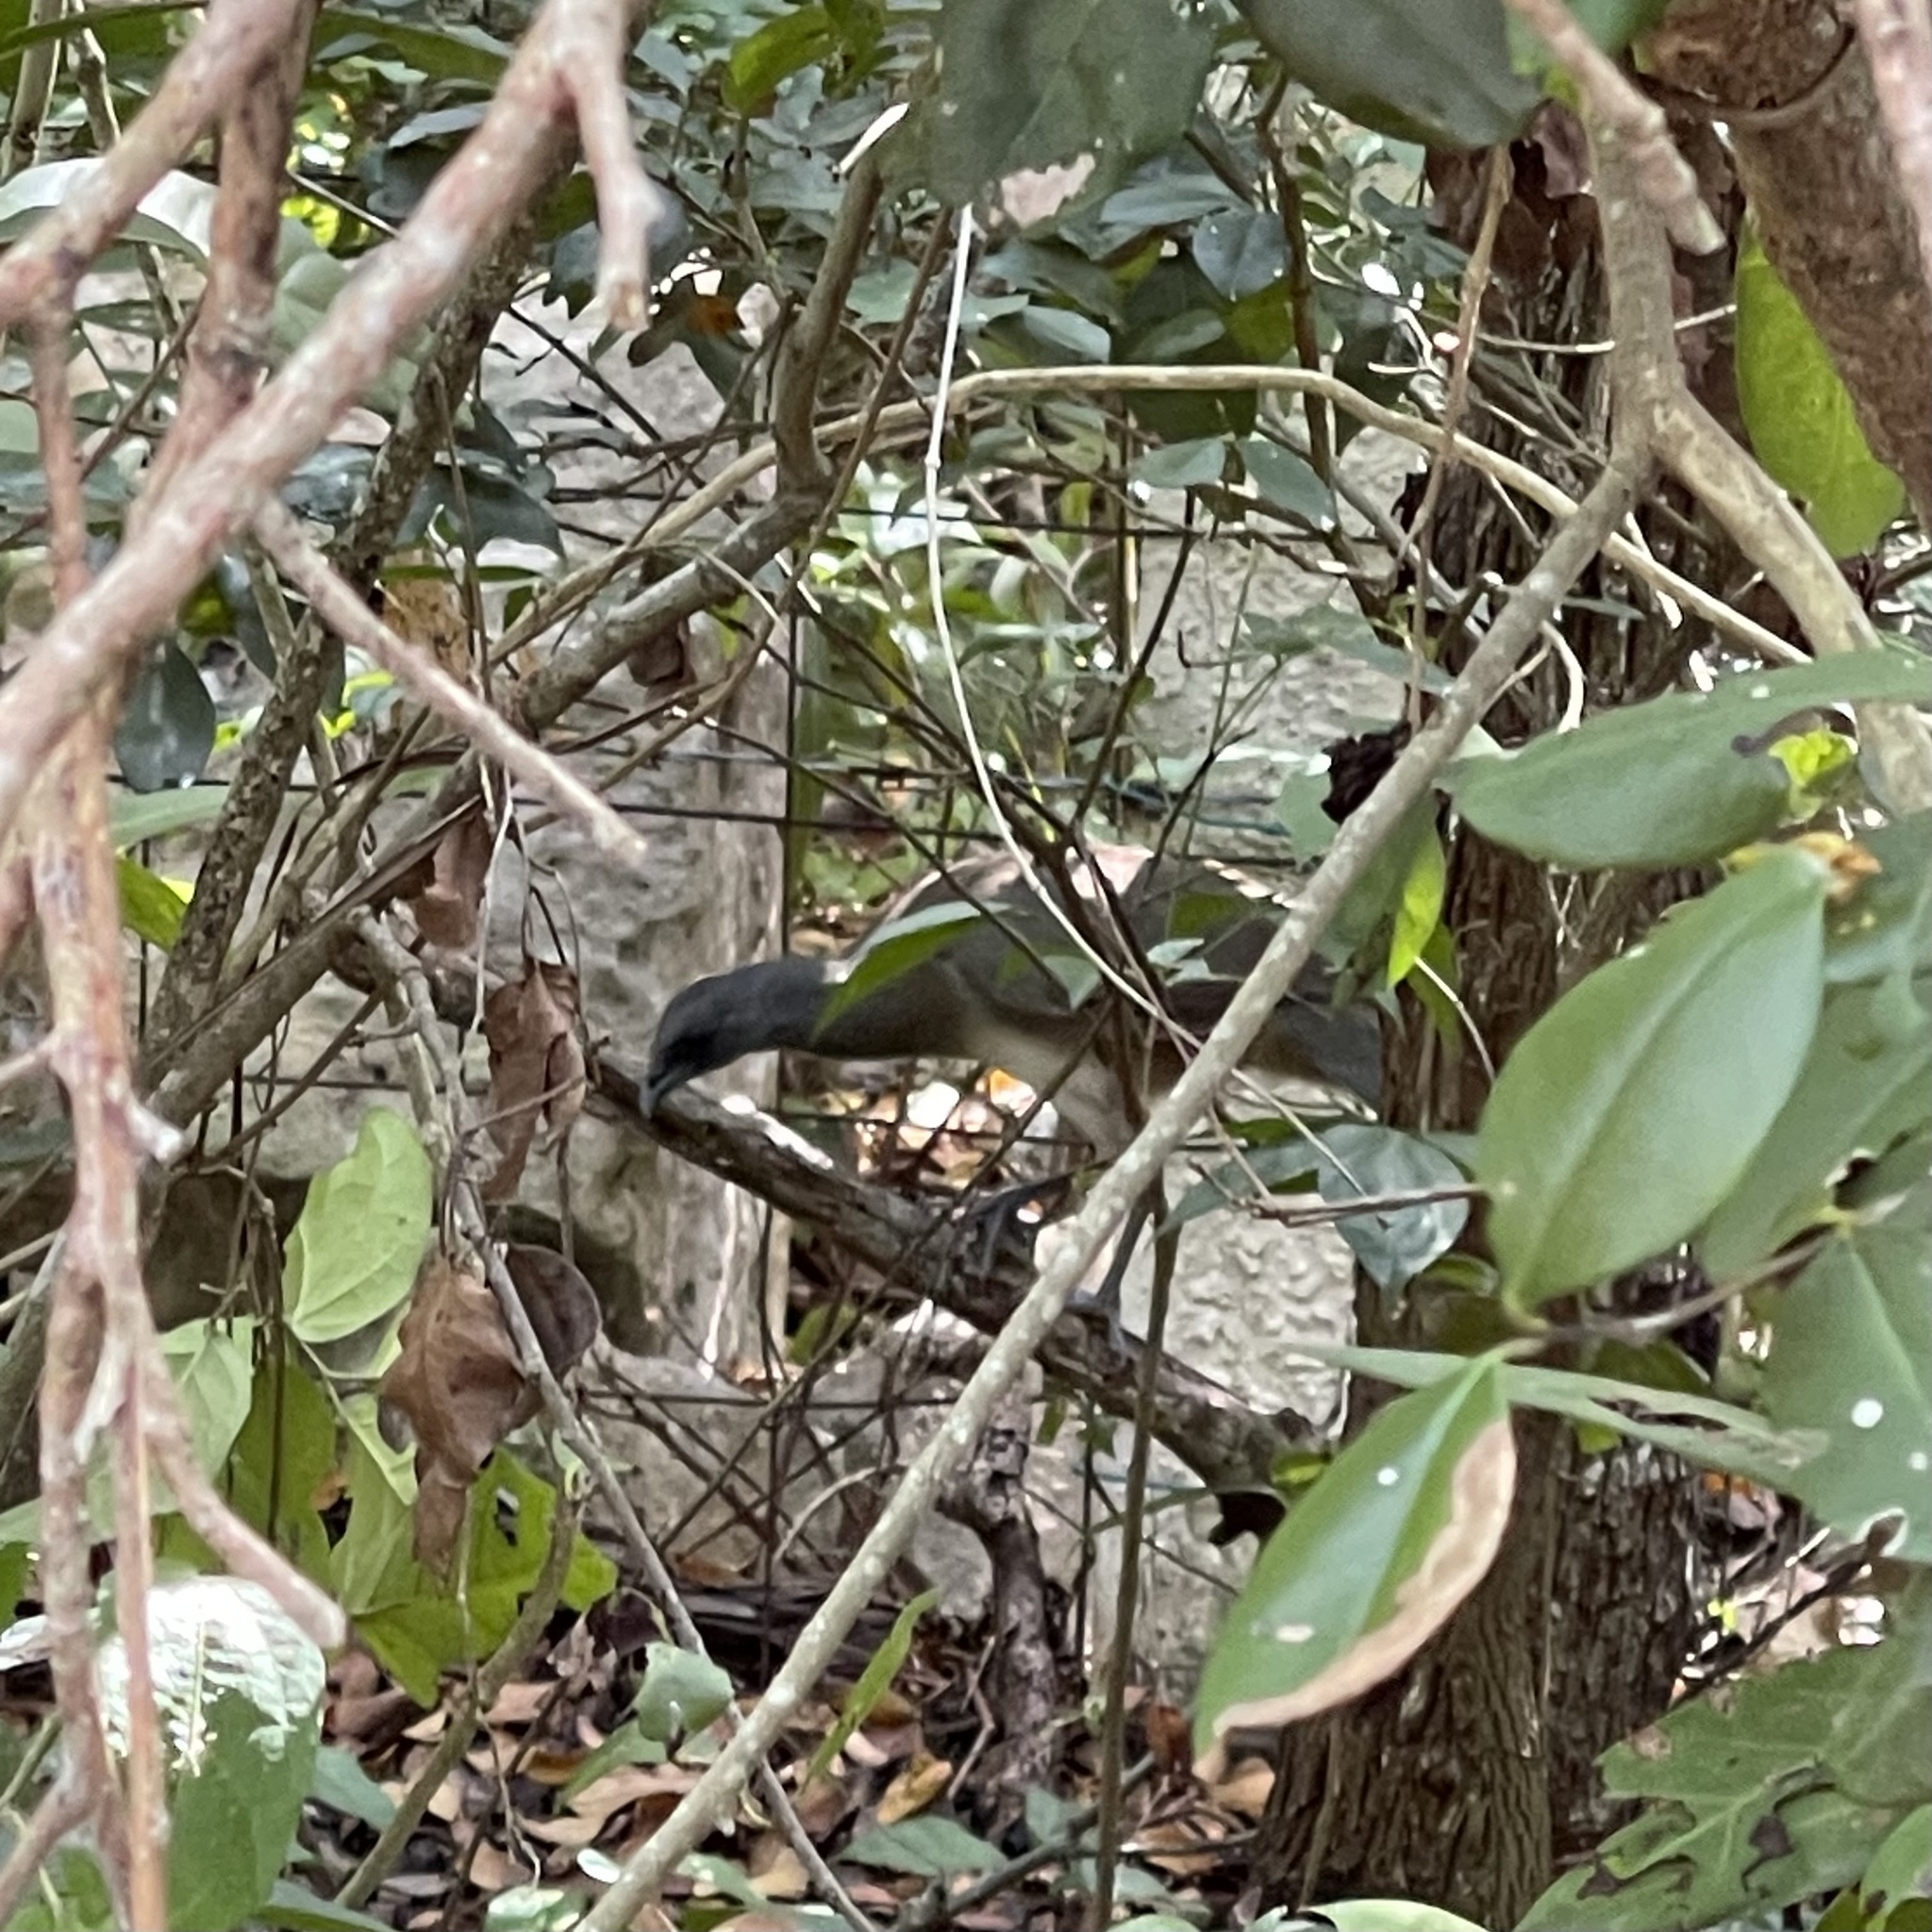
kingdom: Animalia
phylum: Chordata
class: Aves
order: Galliformes
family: Cracidae
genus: Ortalis
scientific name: Ortalis vetula
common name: Plain chachalaca
